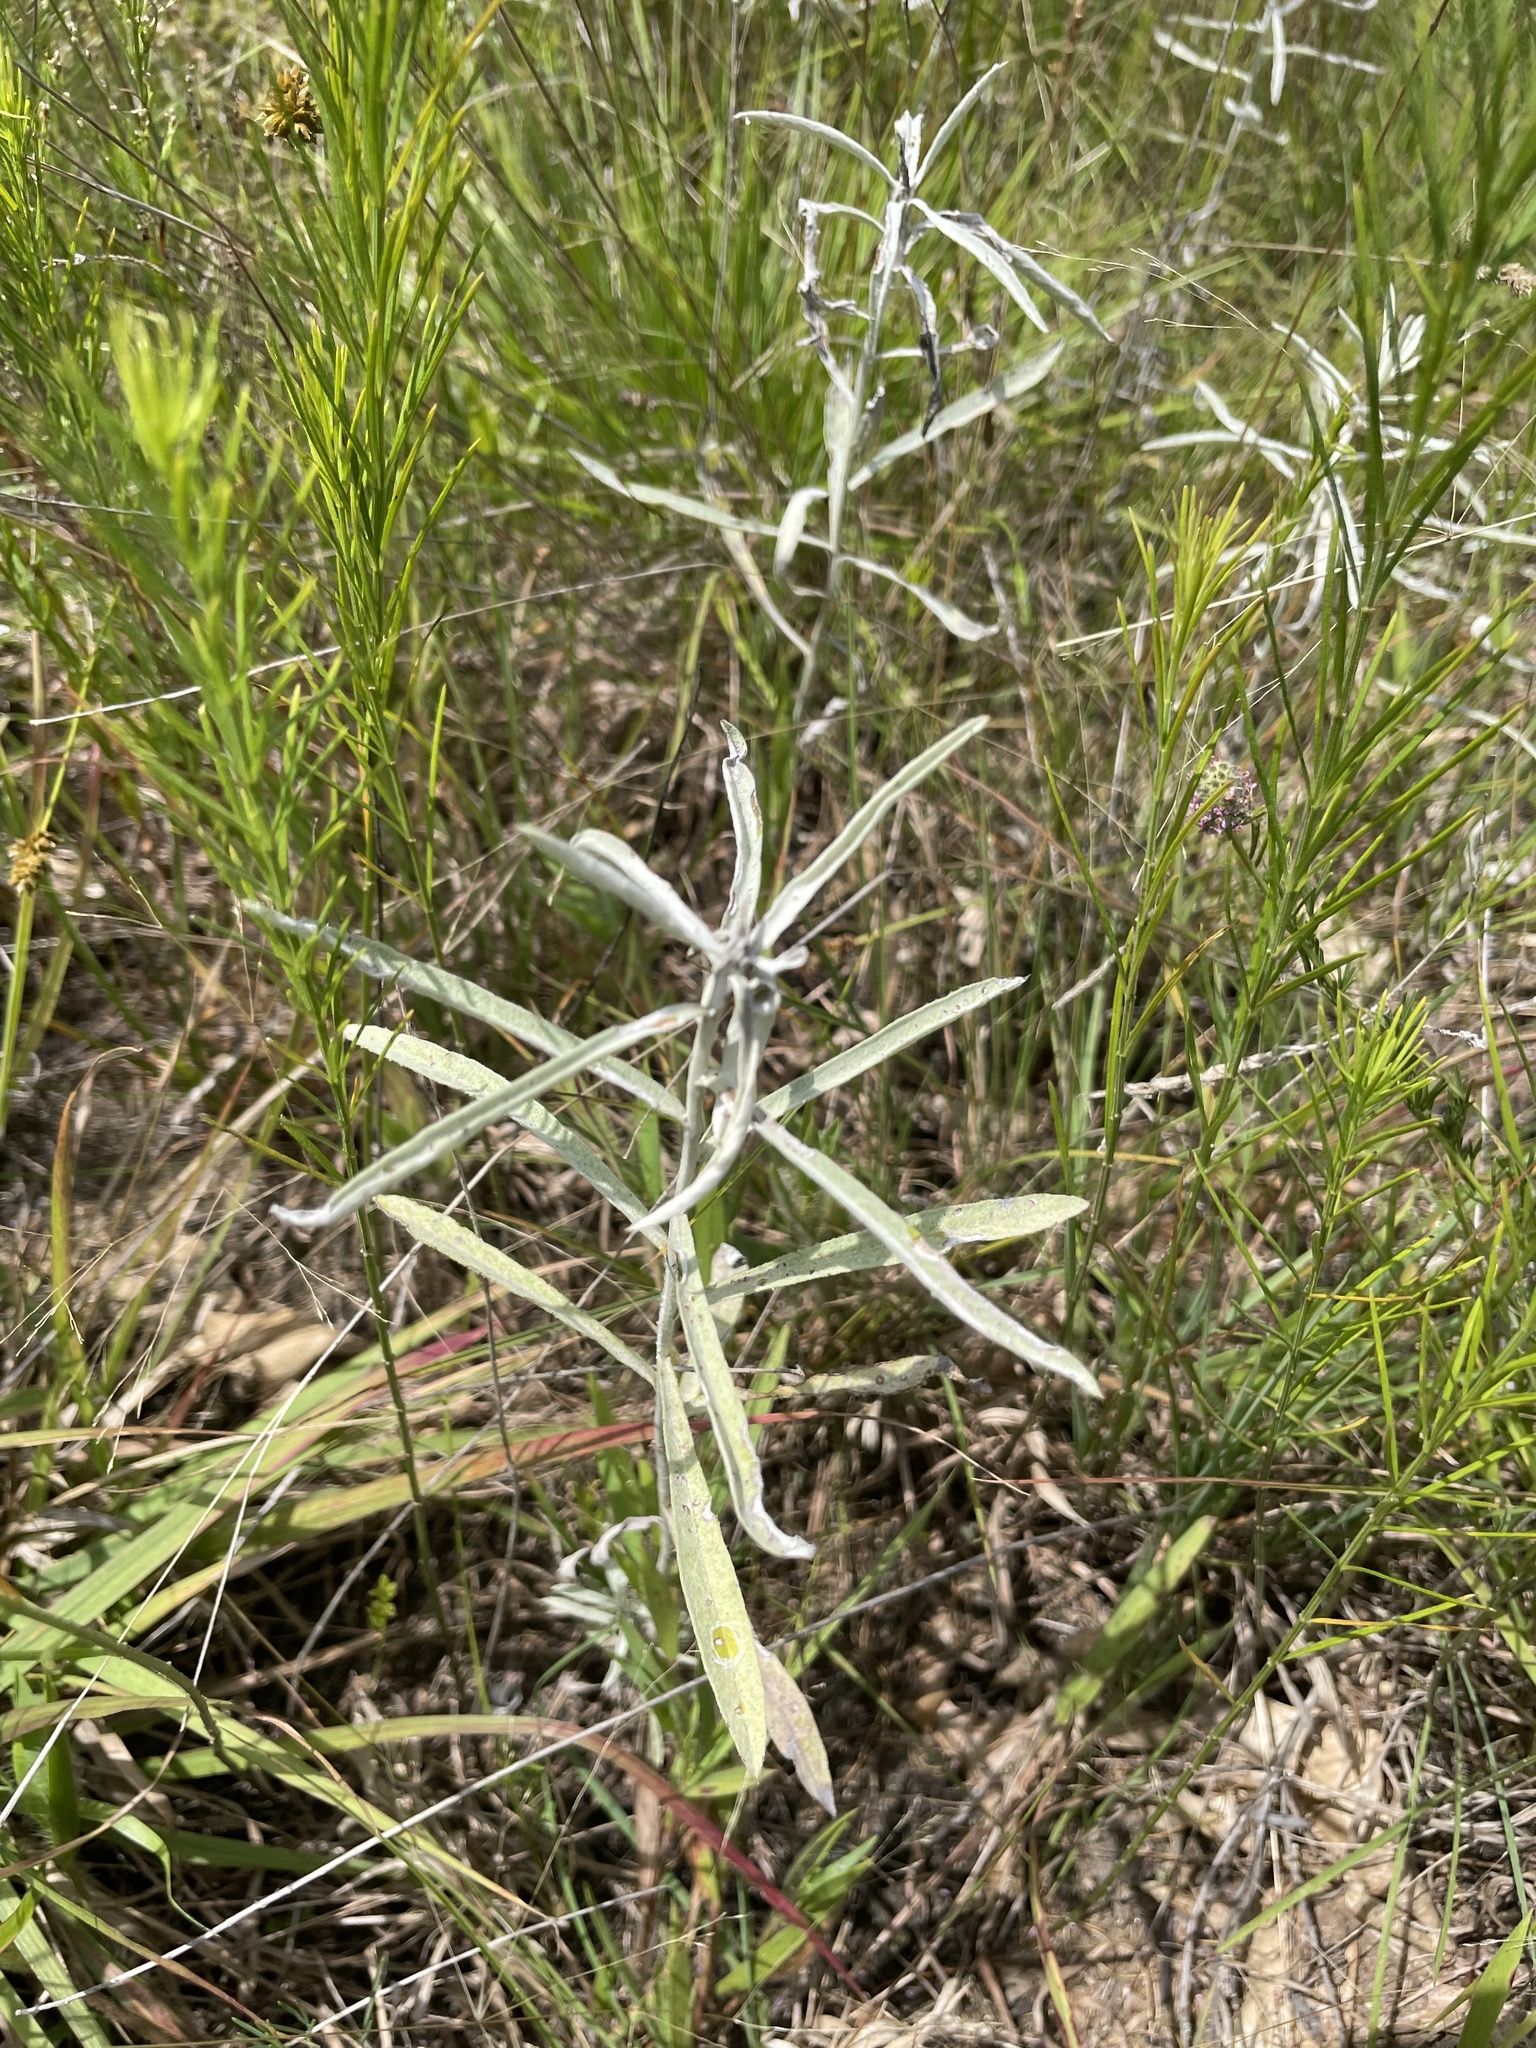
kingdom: Plantae
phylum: Tracheophyta
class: Magnoliopsida
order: Asterales
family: Asteraceae
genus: Artemisia
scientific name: Artemisia ludoviciana
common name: Western mugwort
